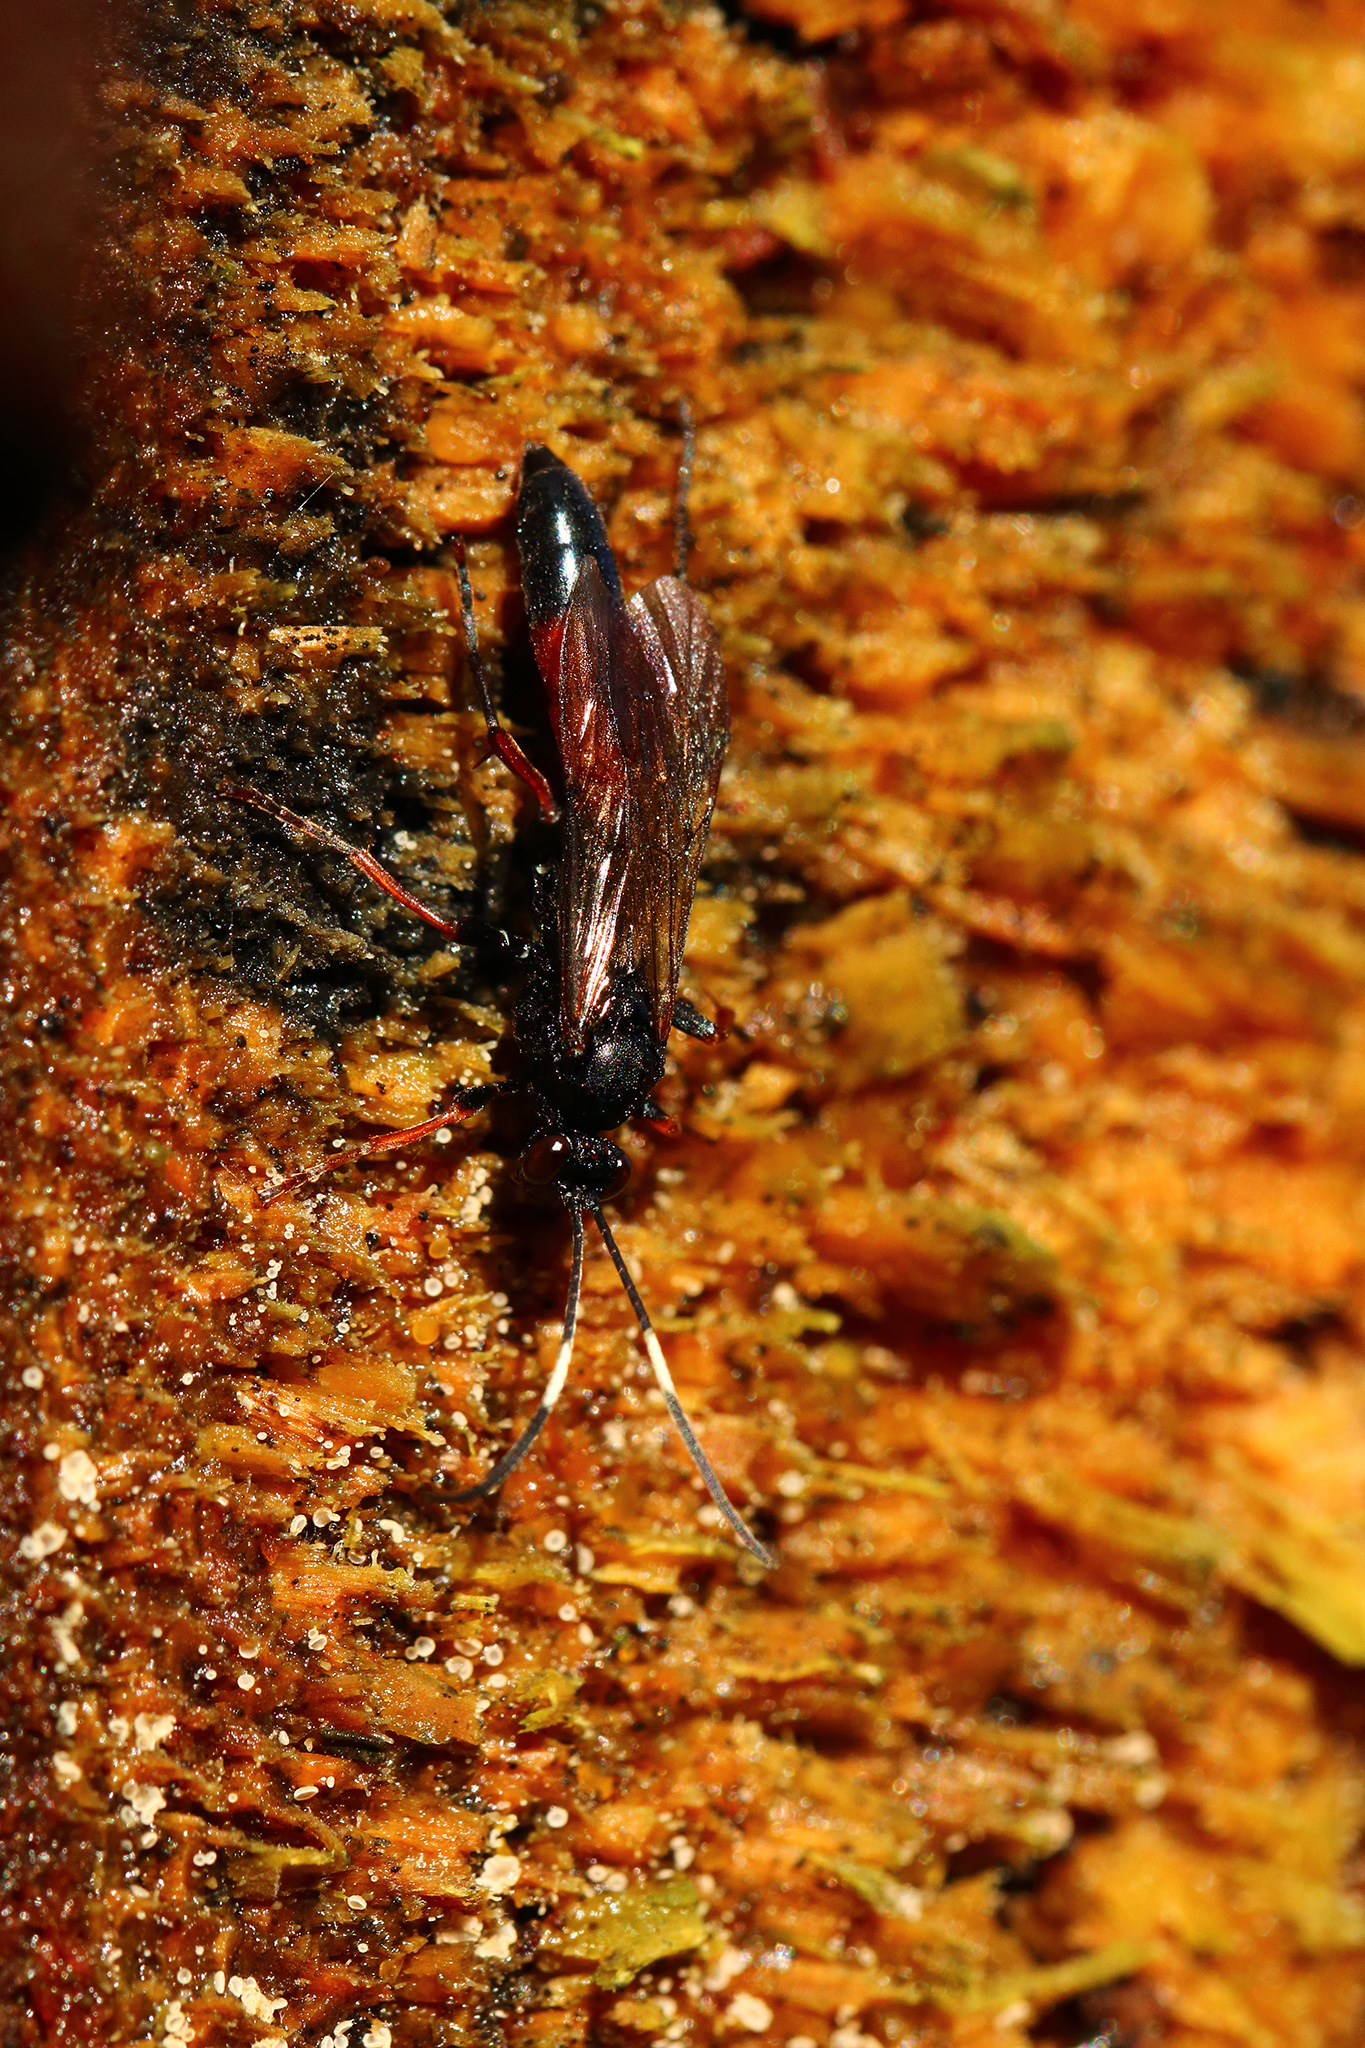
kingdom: Animalia
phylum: Arthropoda
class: Insecta
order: Hymenoptera
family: Ichneumonidae
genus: Stenichneumon
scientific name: Stenichneumon culpator
